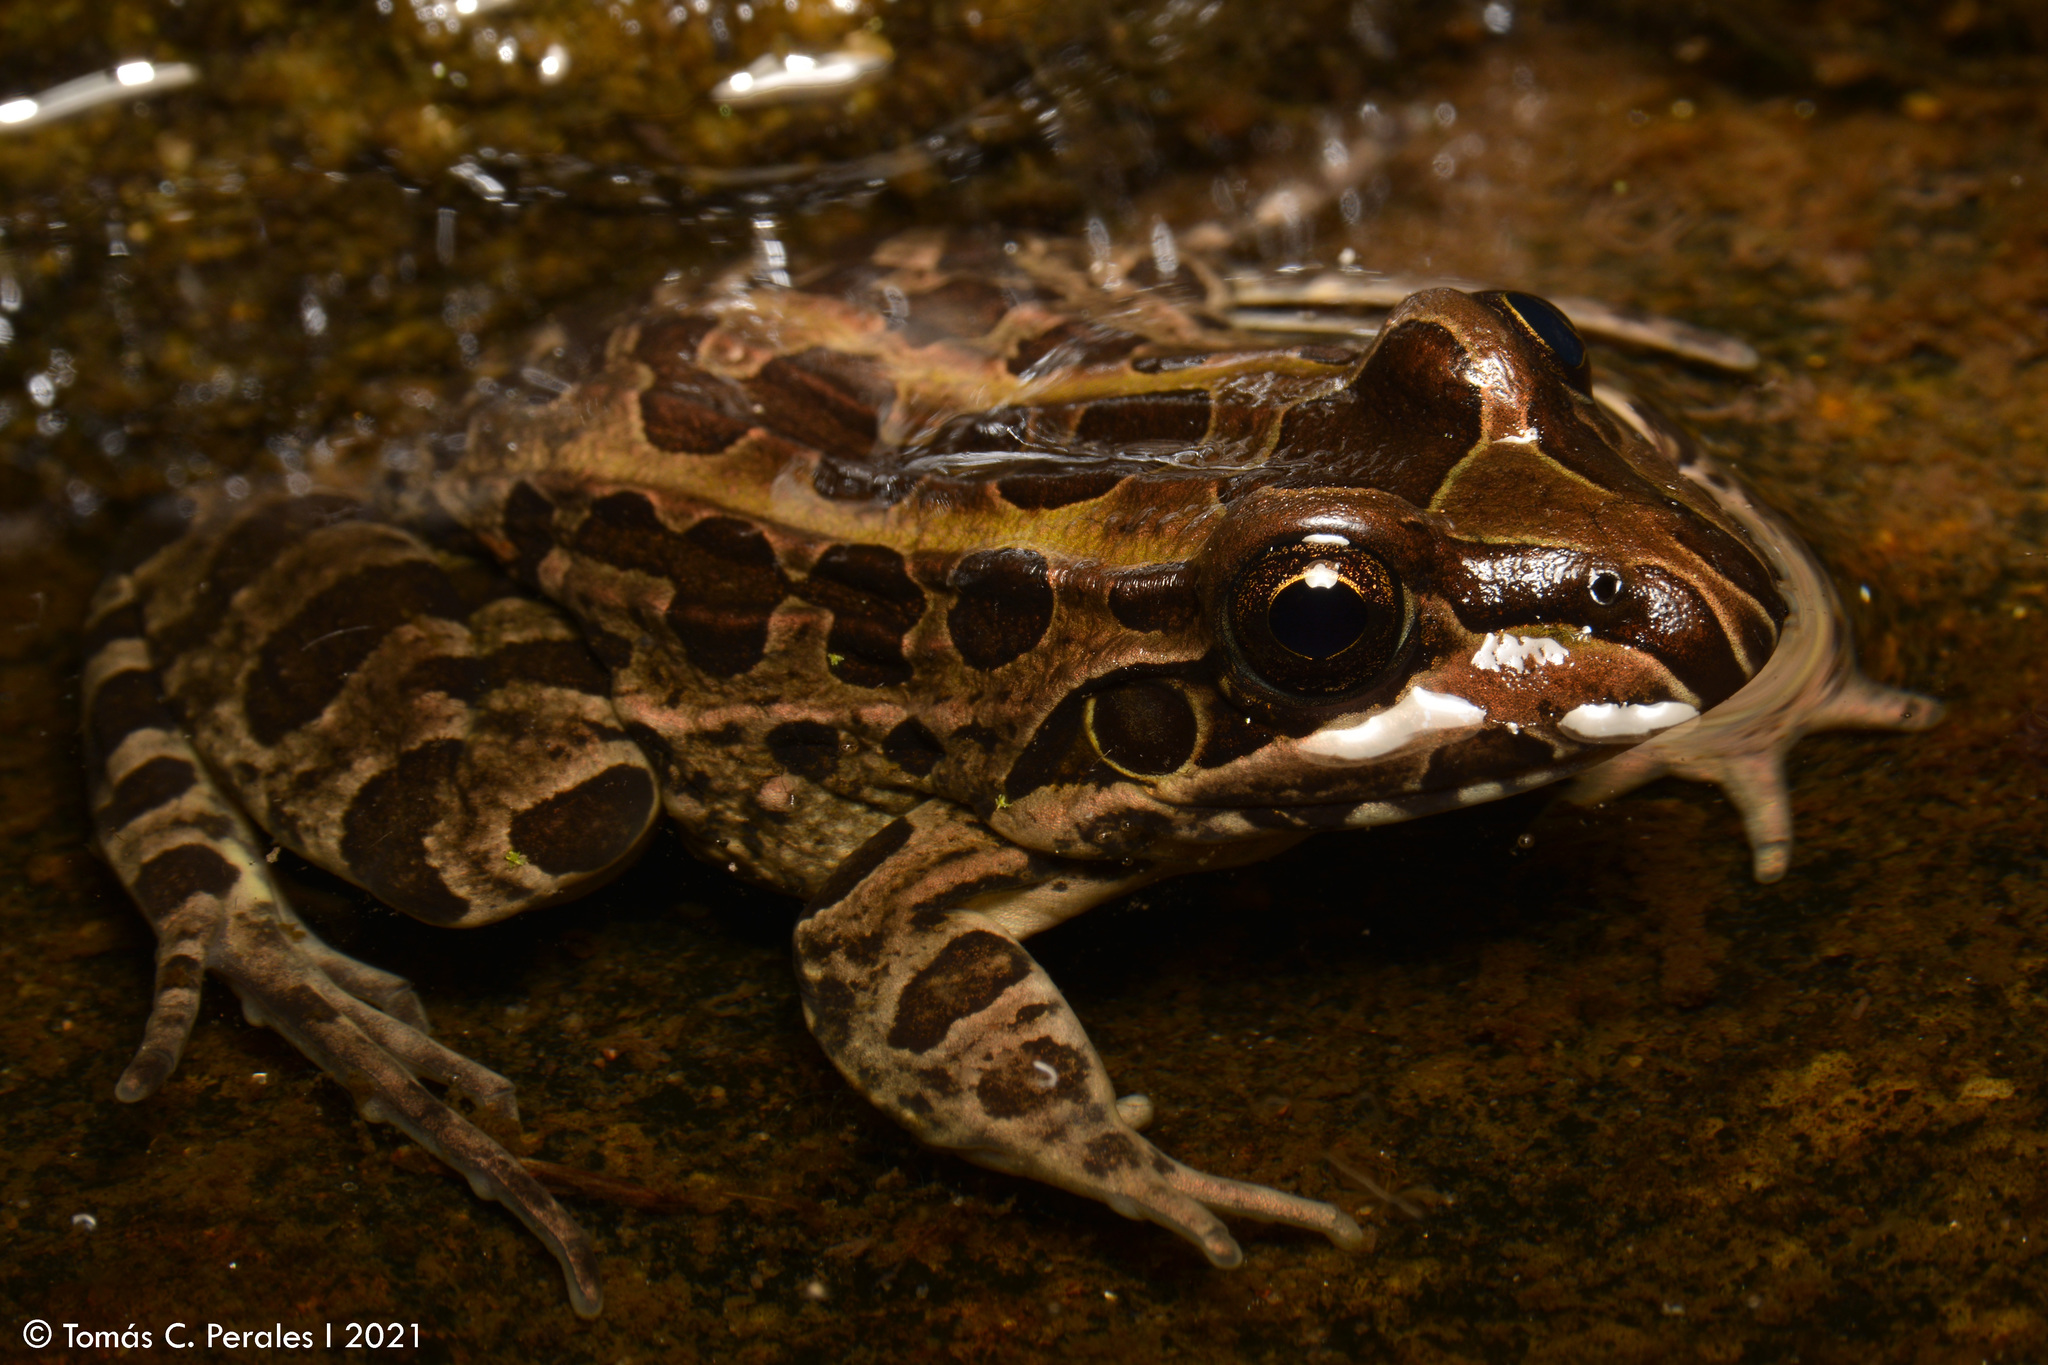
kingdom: Animalia
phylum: Chordata
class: Amphibia
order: Anura
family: Leptodactylidae
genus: Leptodactylus
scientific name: Leptodactylus luctator
